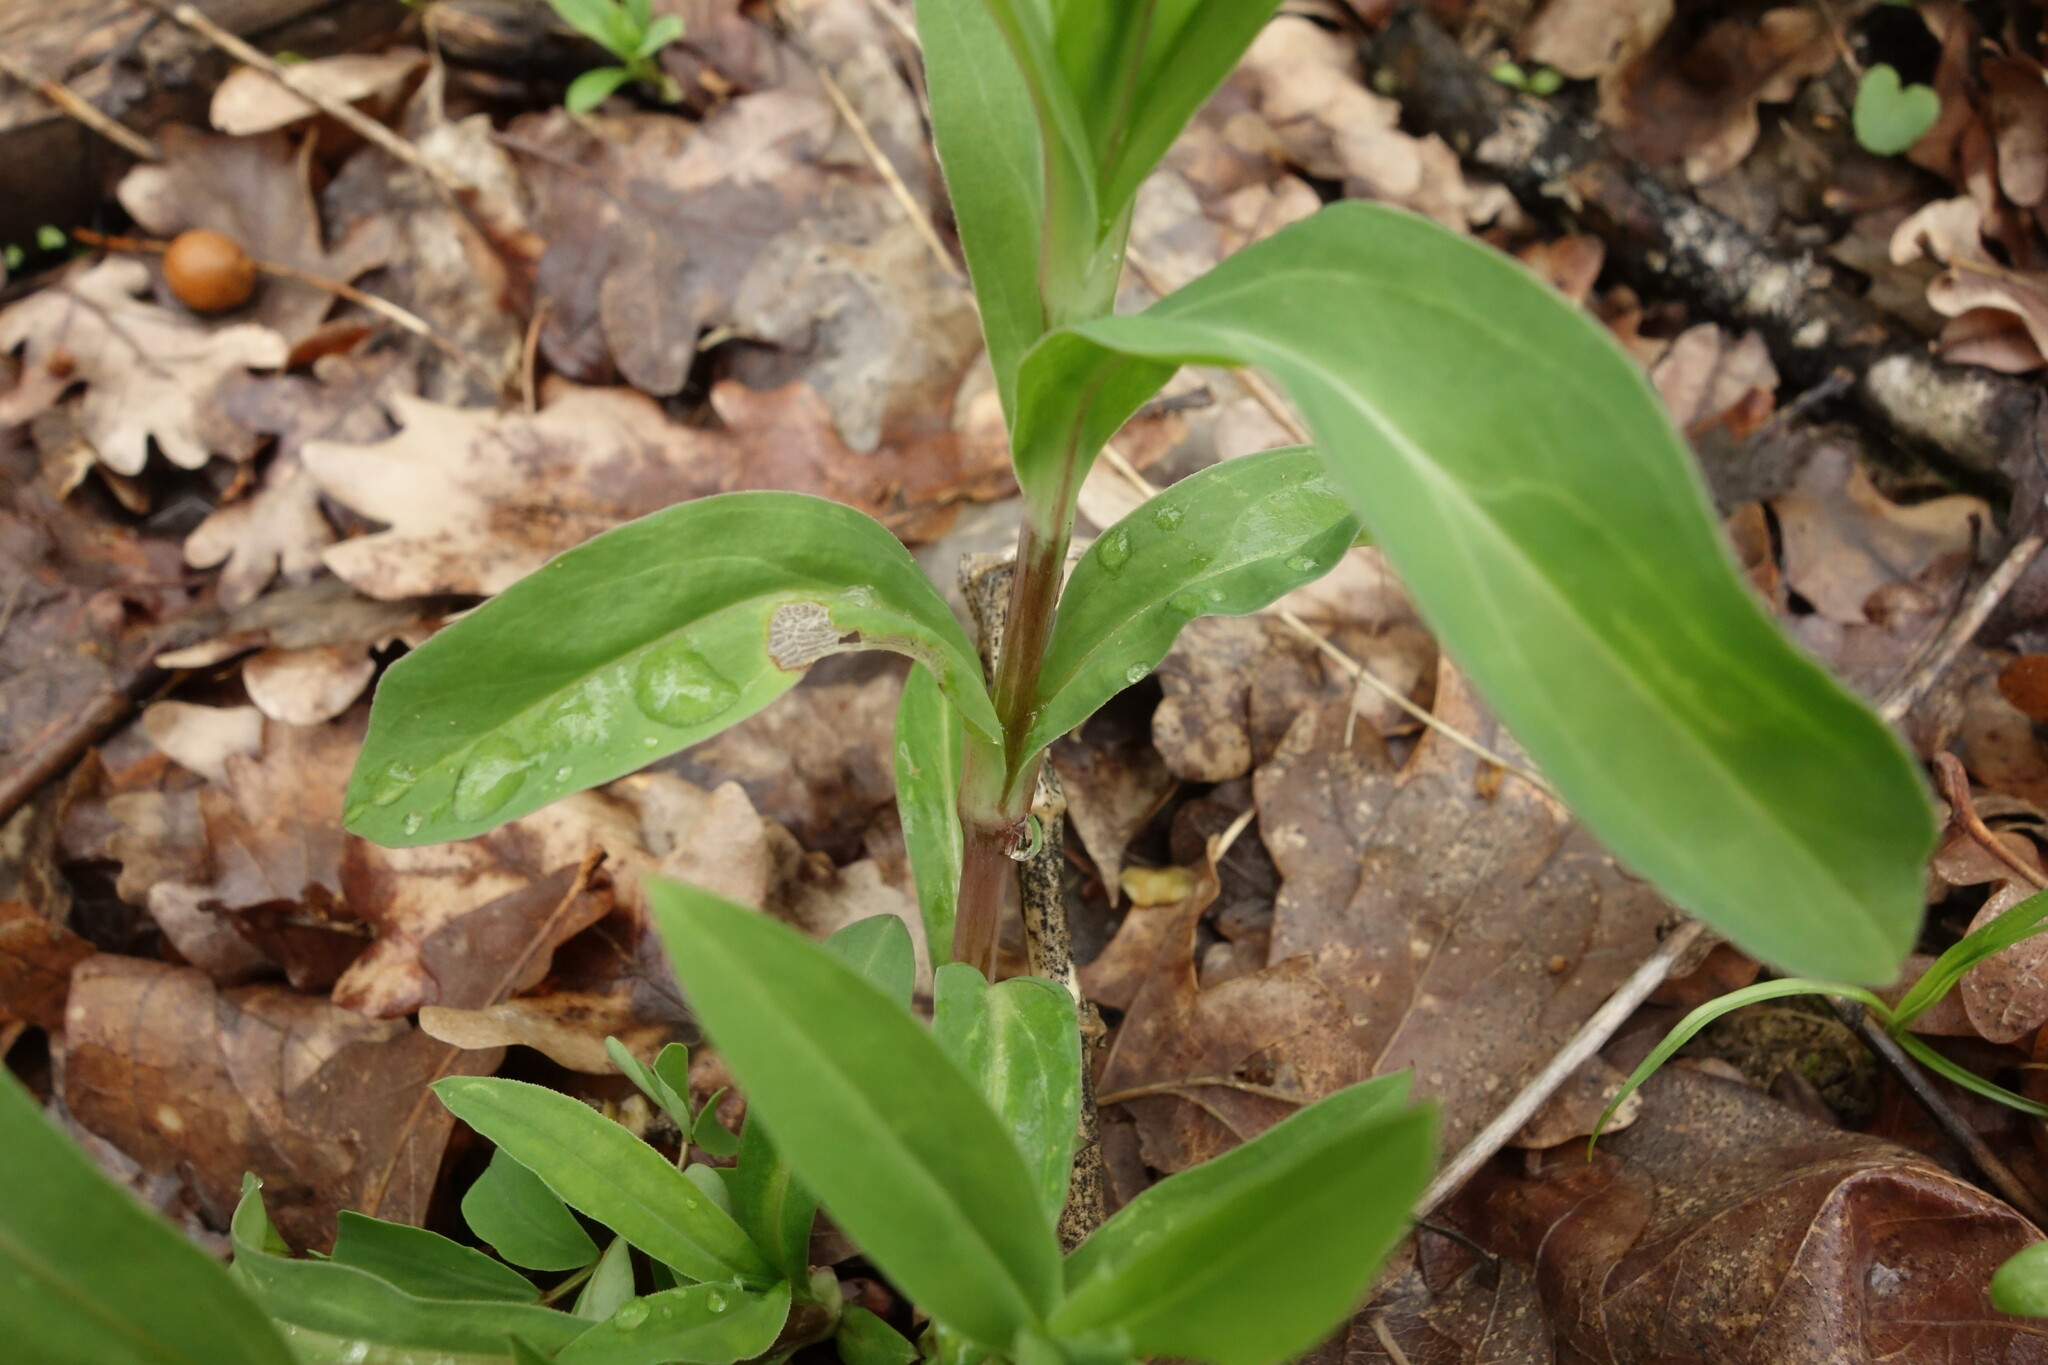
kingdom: Plantae
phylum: Tracheophyta
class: Magnoliopsida
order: Caryophyllales
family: Caryophyllaceae
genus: Silene
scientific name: Silene latifolia
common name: White campion
